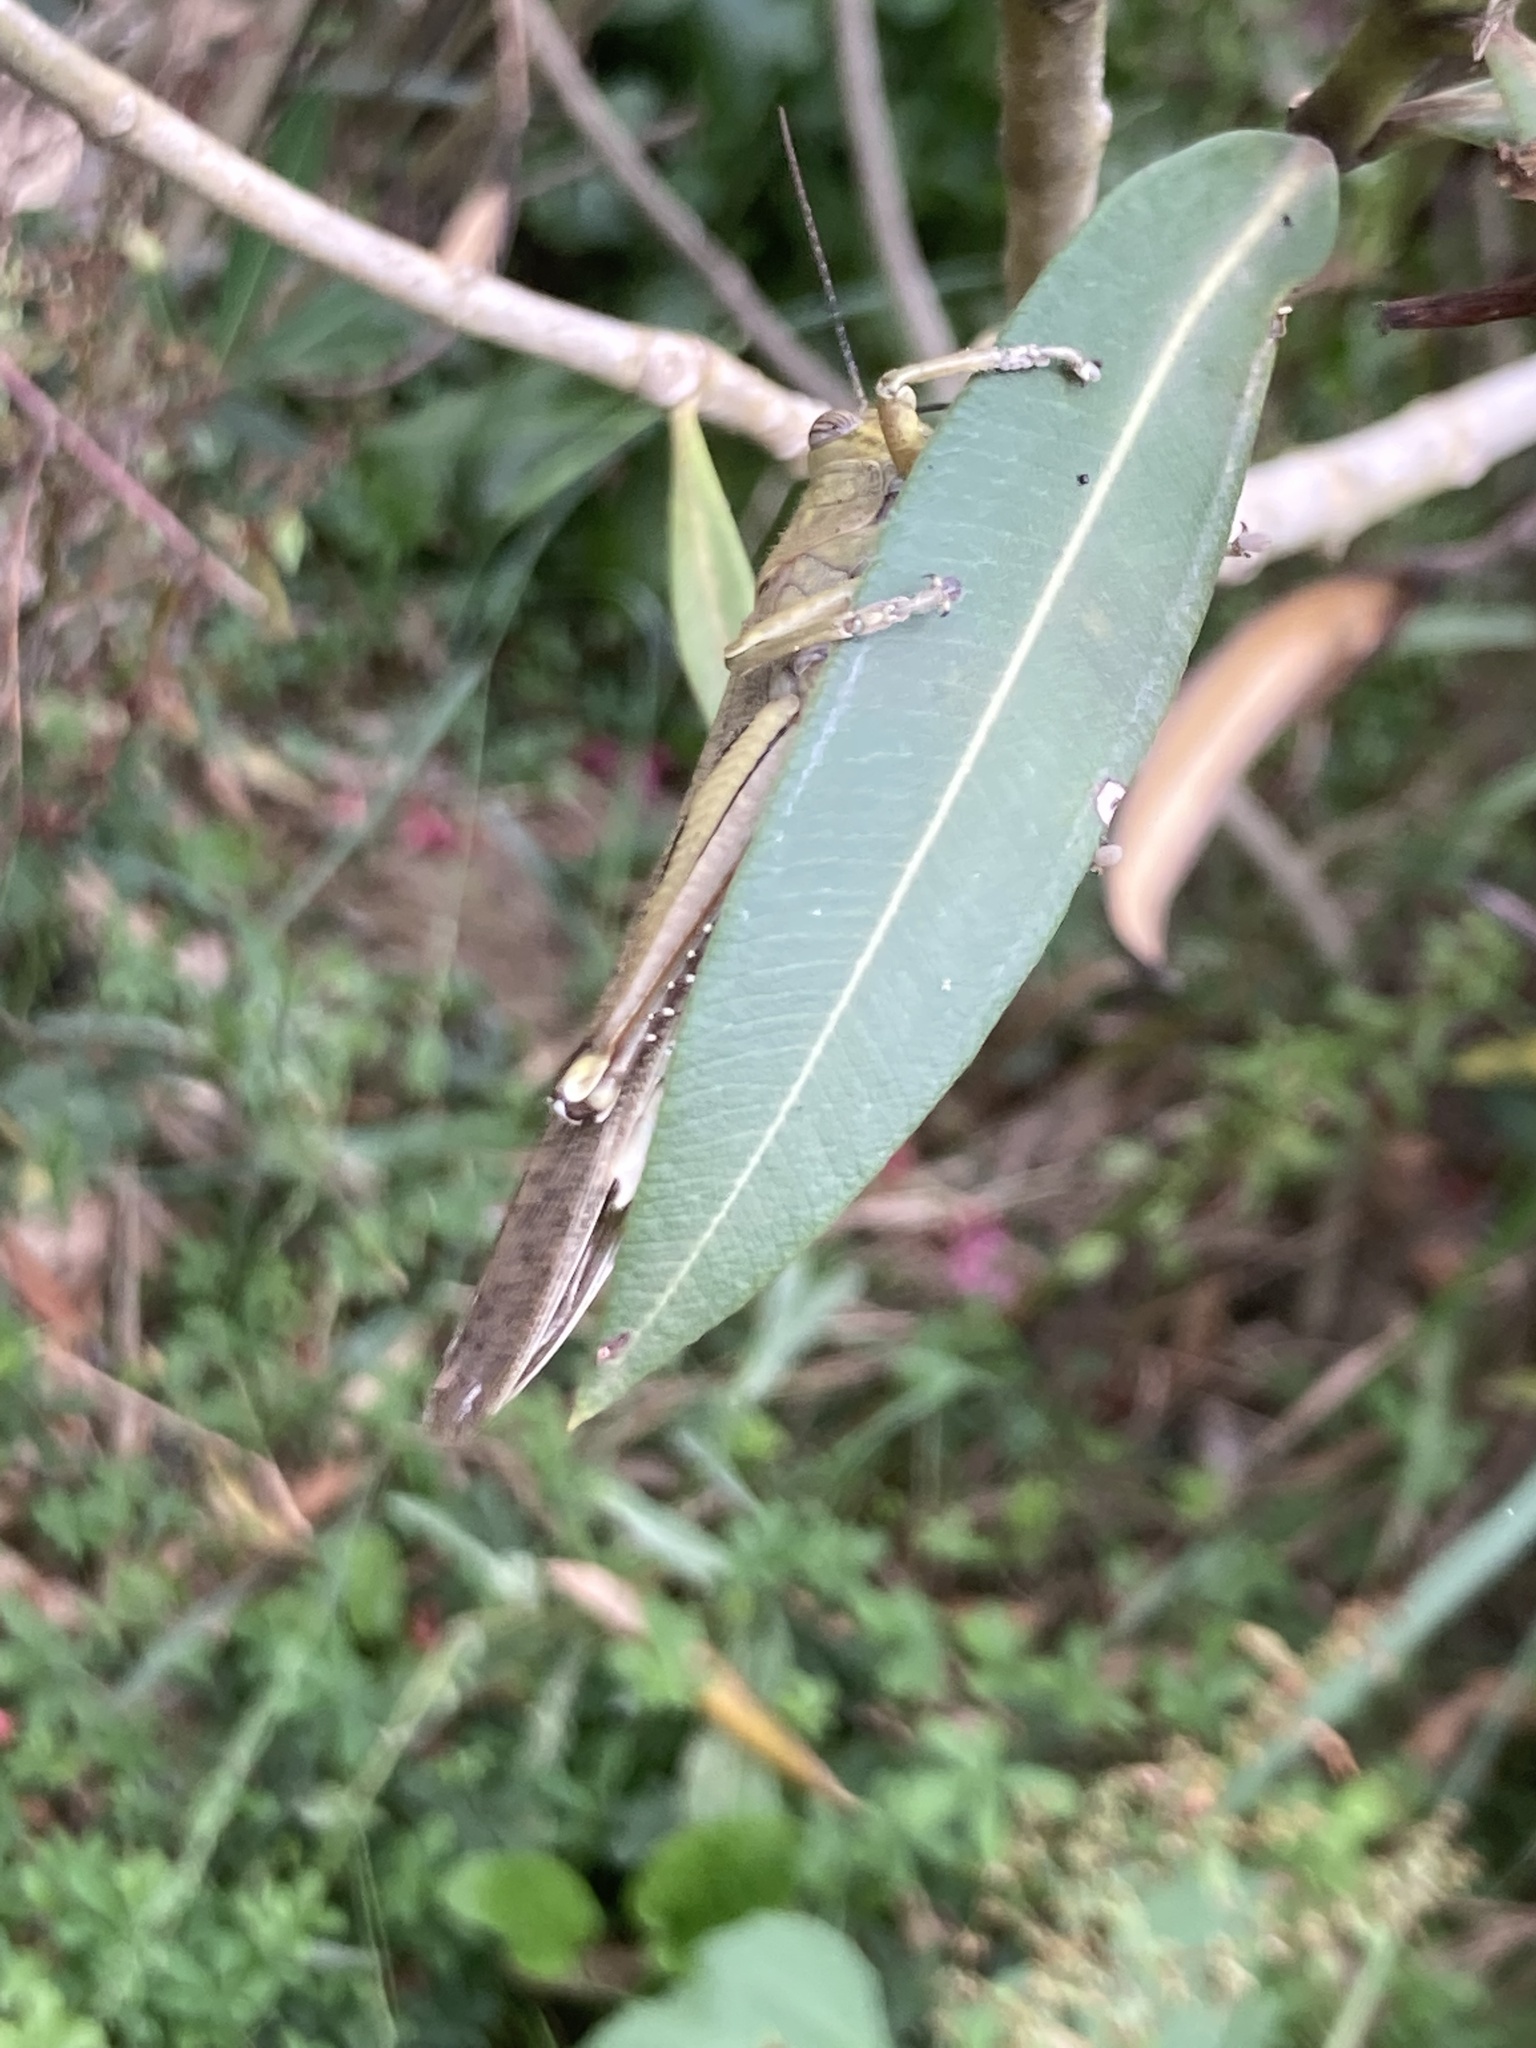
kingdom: Animalia
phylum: Arthropoda
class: Insecta
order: Orthoptera
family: Acrididae
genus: Anacridium
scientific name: Anacridium aegyptium
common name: Egyptian grasshopper
